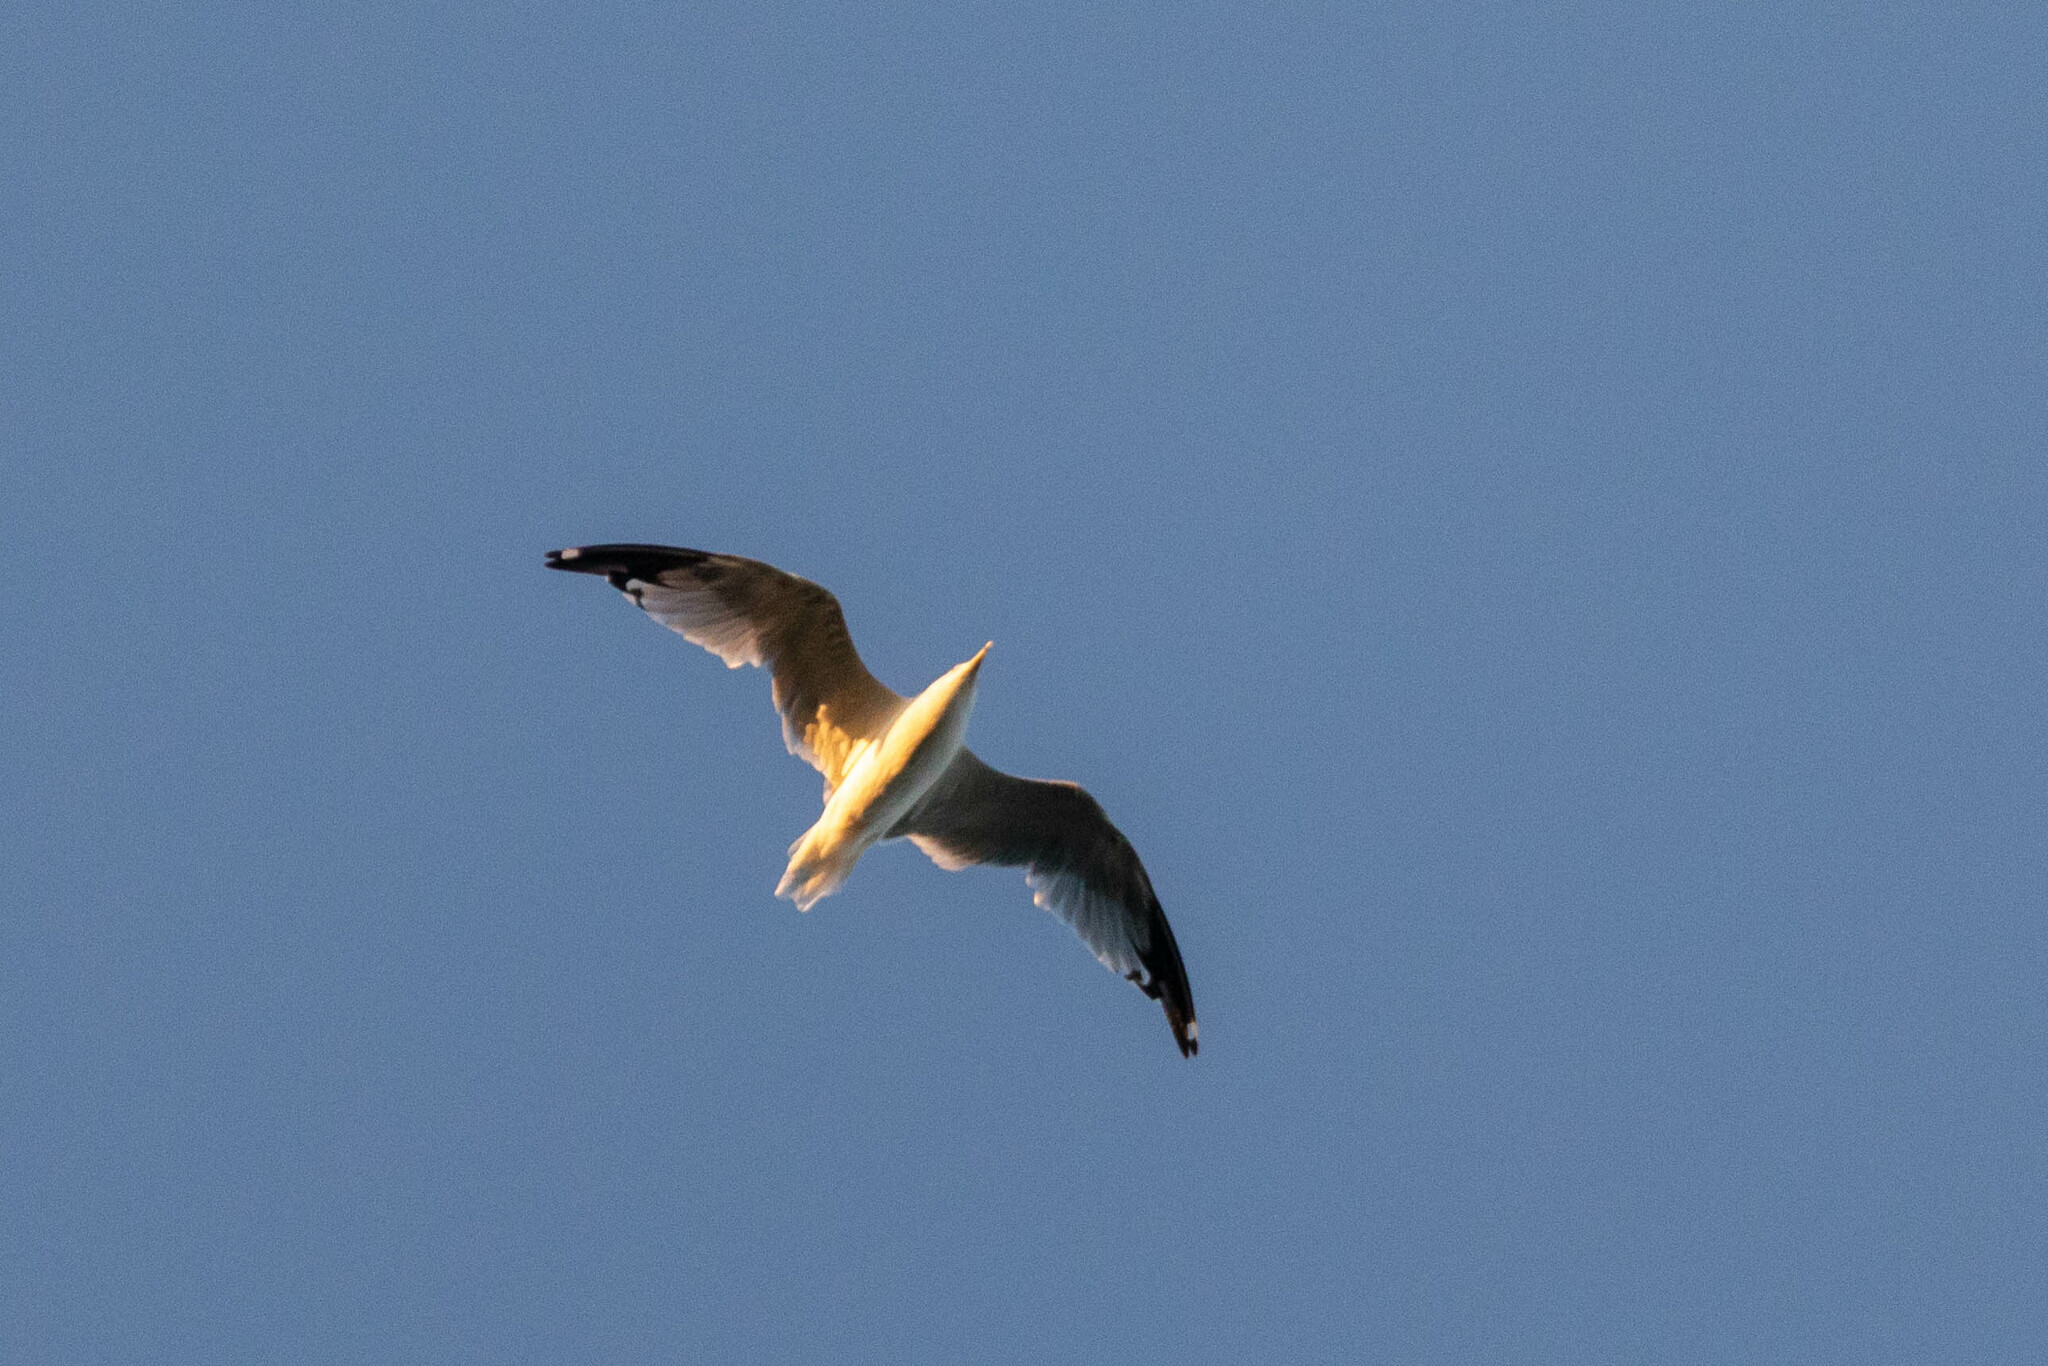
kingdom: Animalia
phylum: Chordata
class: Aves
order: Charadriiformes
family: Laridae
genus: Larus
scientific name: Larus delawarensis
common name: Ring-billed gull
